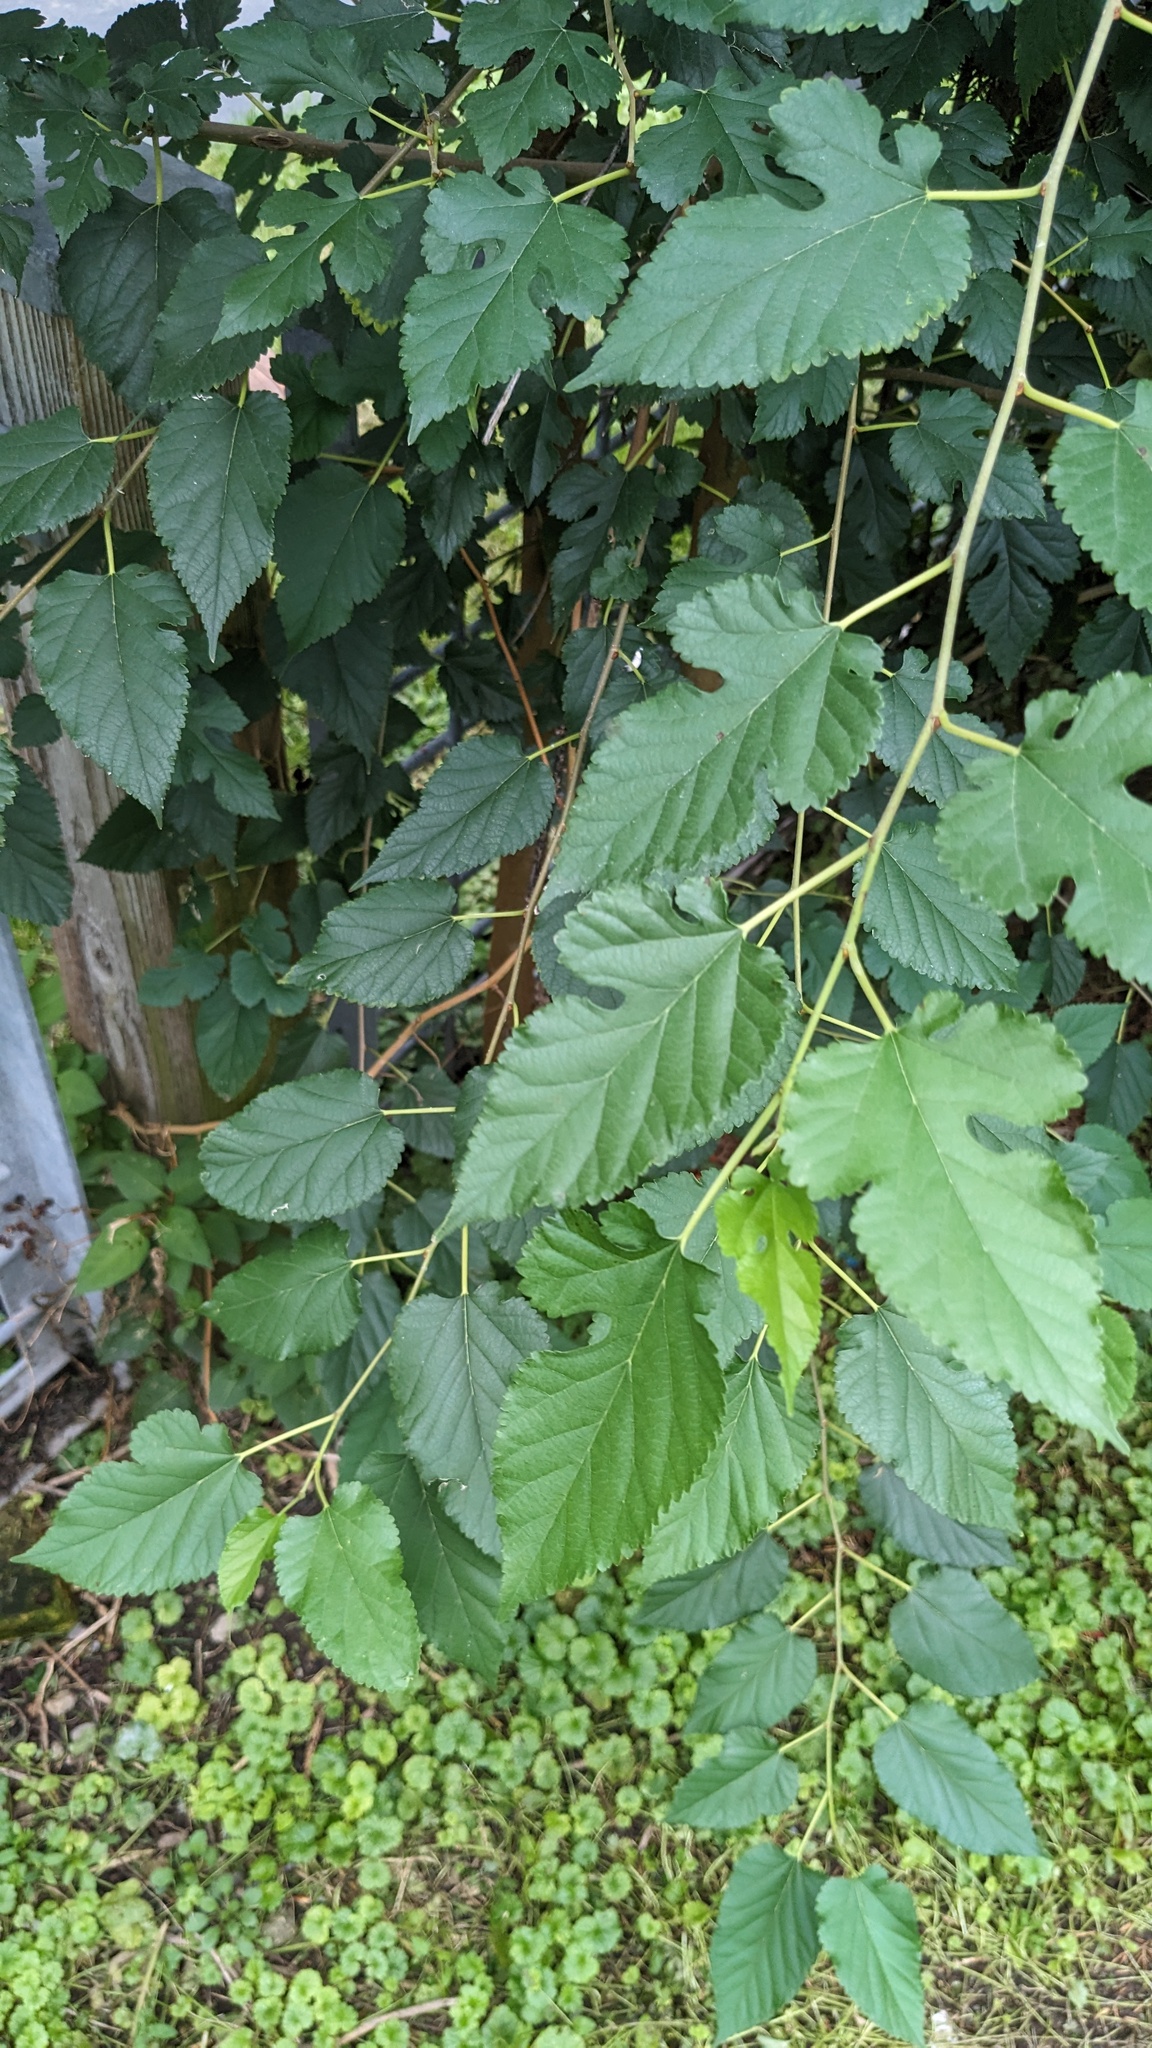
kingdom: Plantae
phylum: Tracheophyta
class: Magnoliopsida
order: Rosales
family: Moraceae
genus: Morus
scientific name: Morus alba
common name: White mulberry
